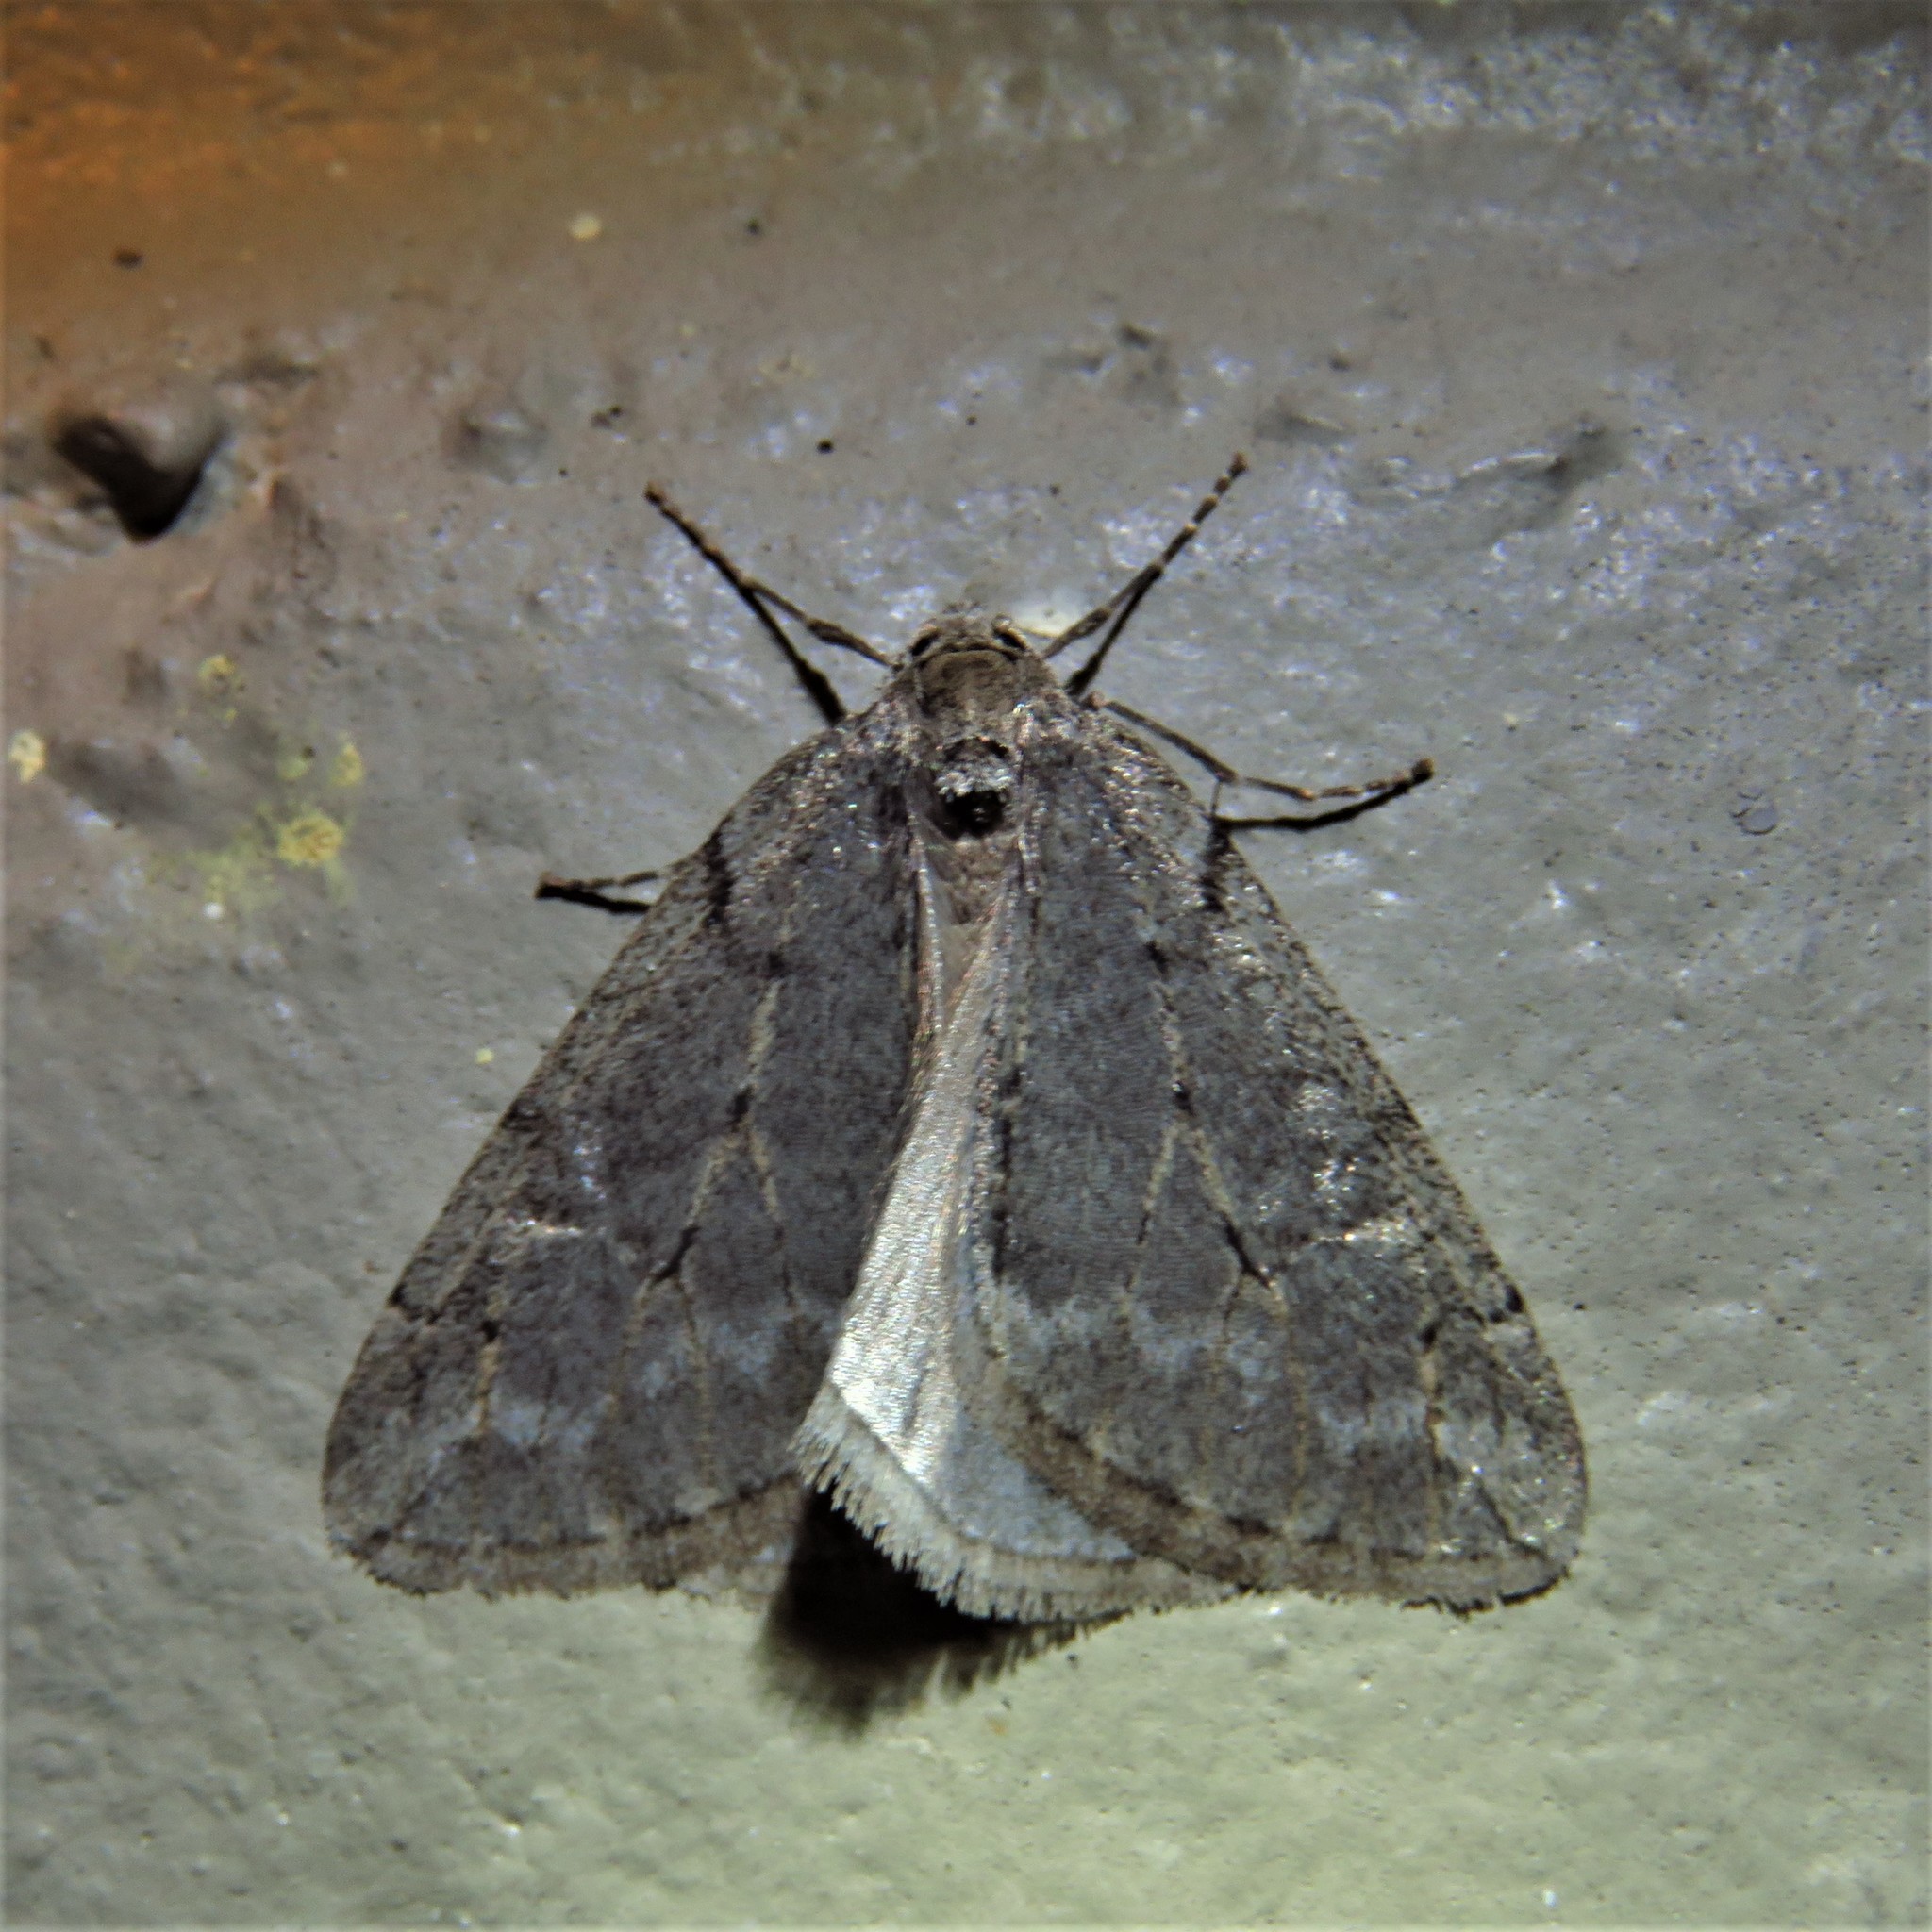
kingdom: Animalia
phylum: Arthropoda
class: Insecta
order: Lepidoptera
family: Geometridae
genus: Paleacrita
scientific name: Paleacrita vernata
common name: Spring cankerworm
